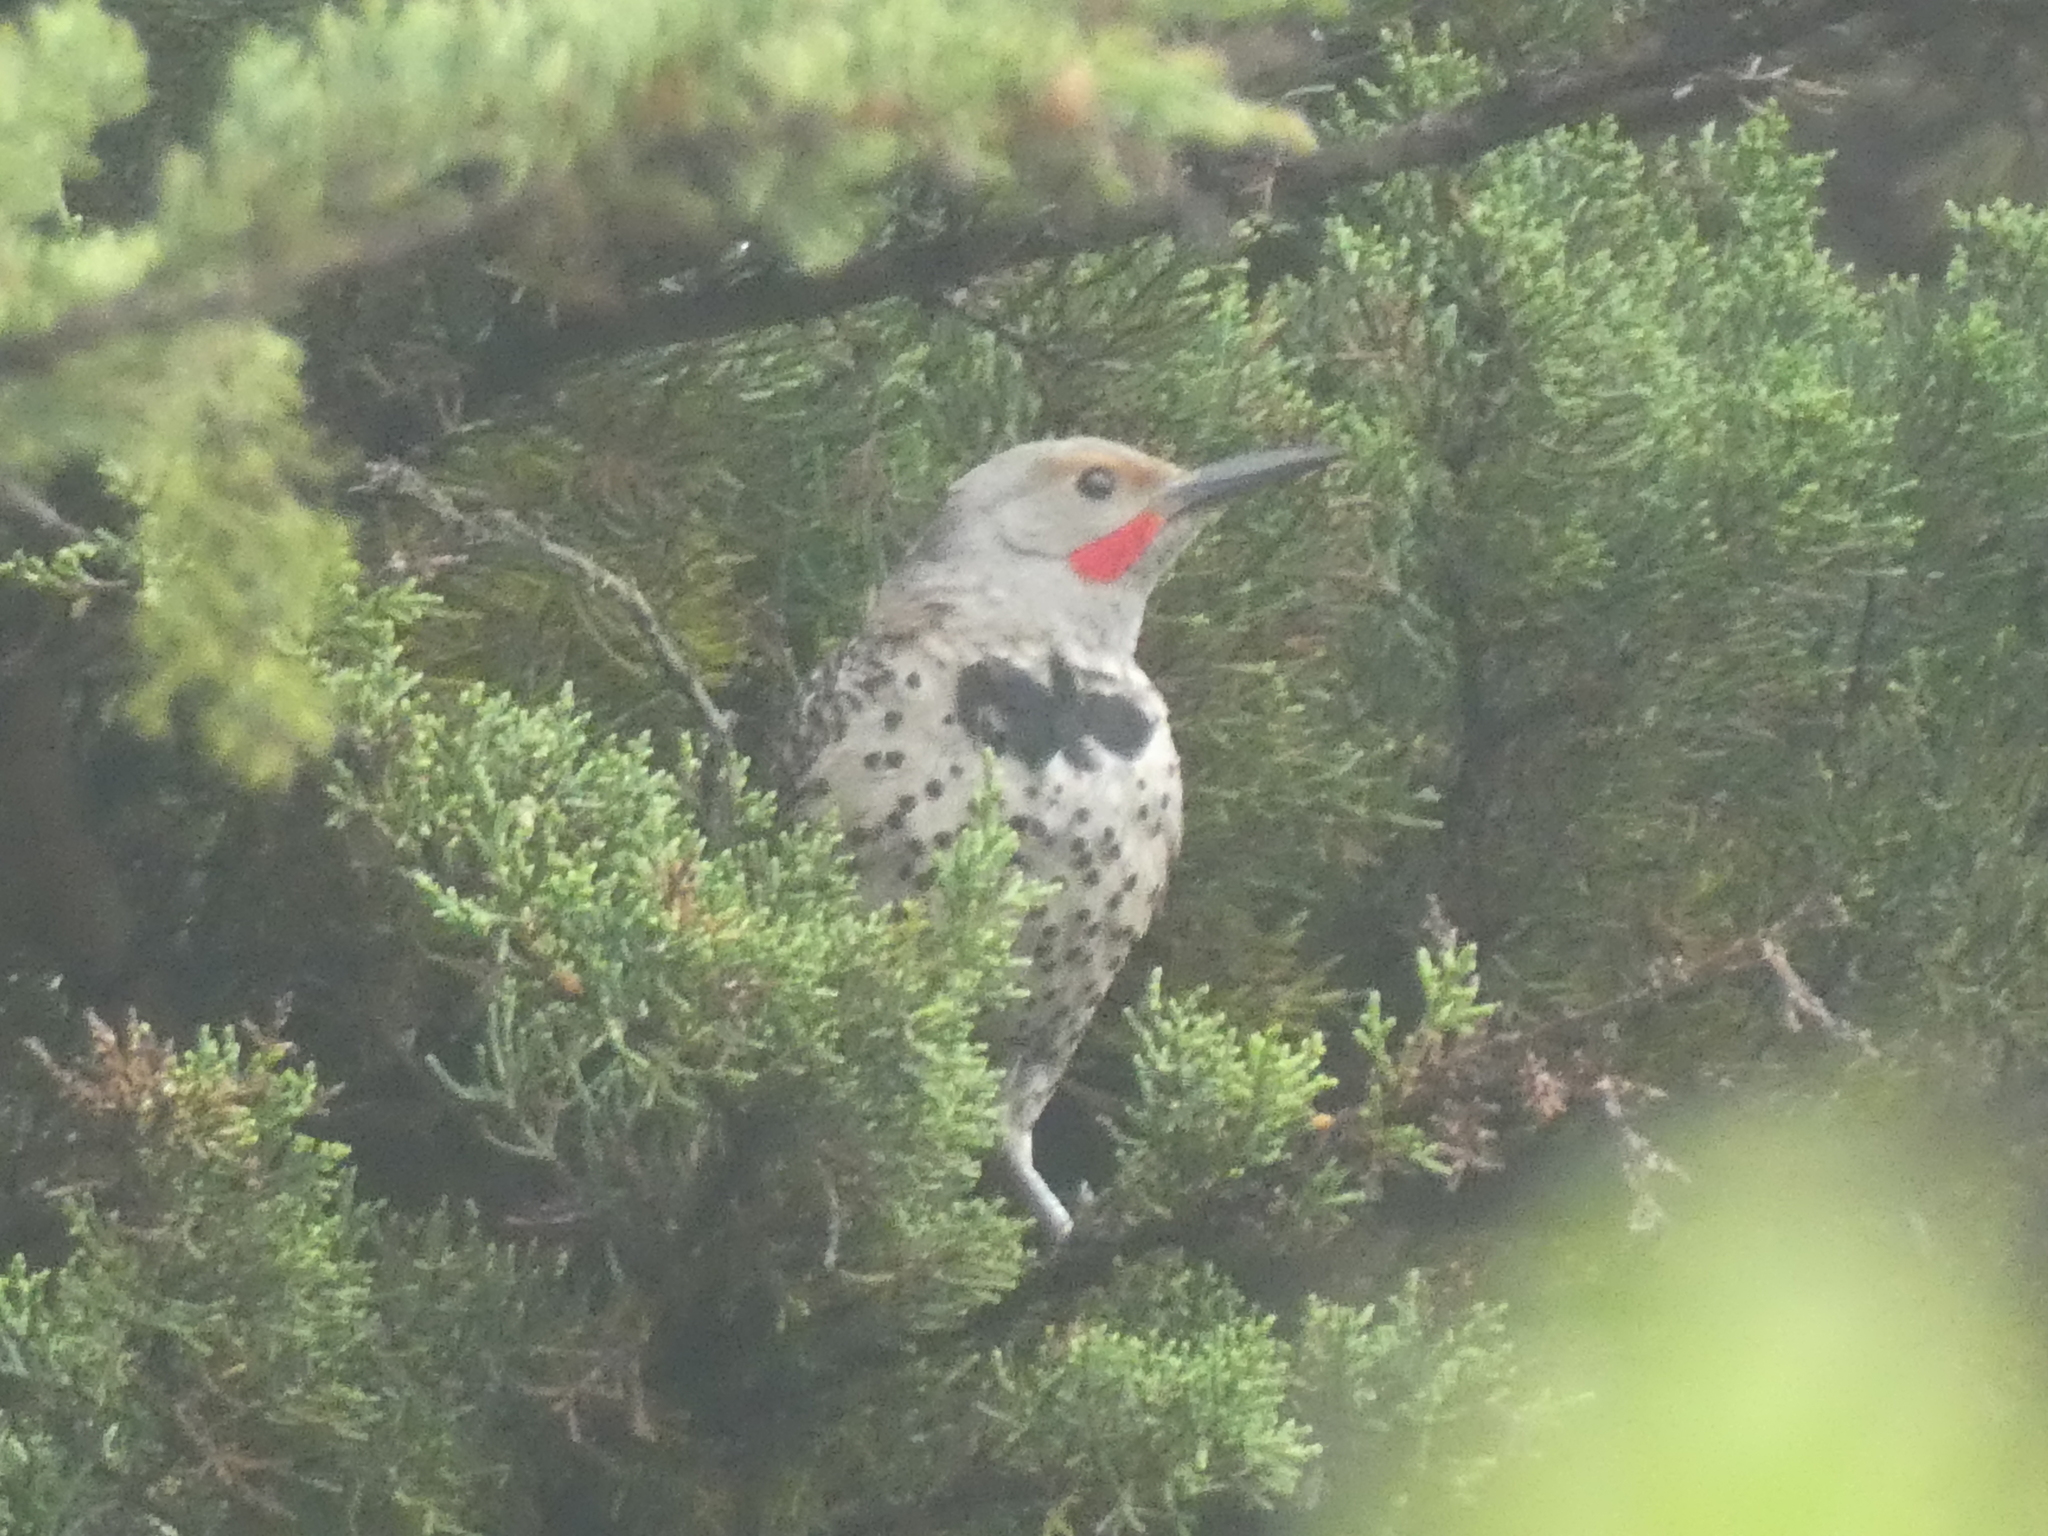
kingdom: Animalia
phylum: Chordata
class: Aves
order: Piciformes
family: Picidae
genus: Colaptes
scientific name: Colaptes auratus
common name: Northern flicker
